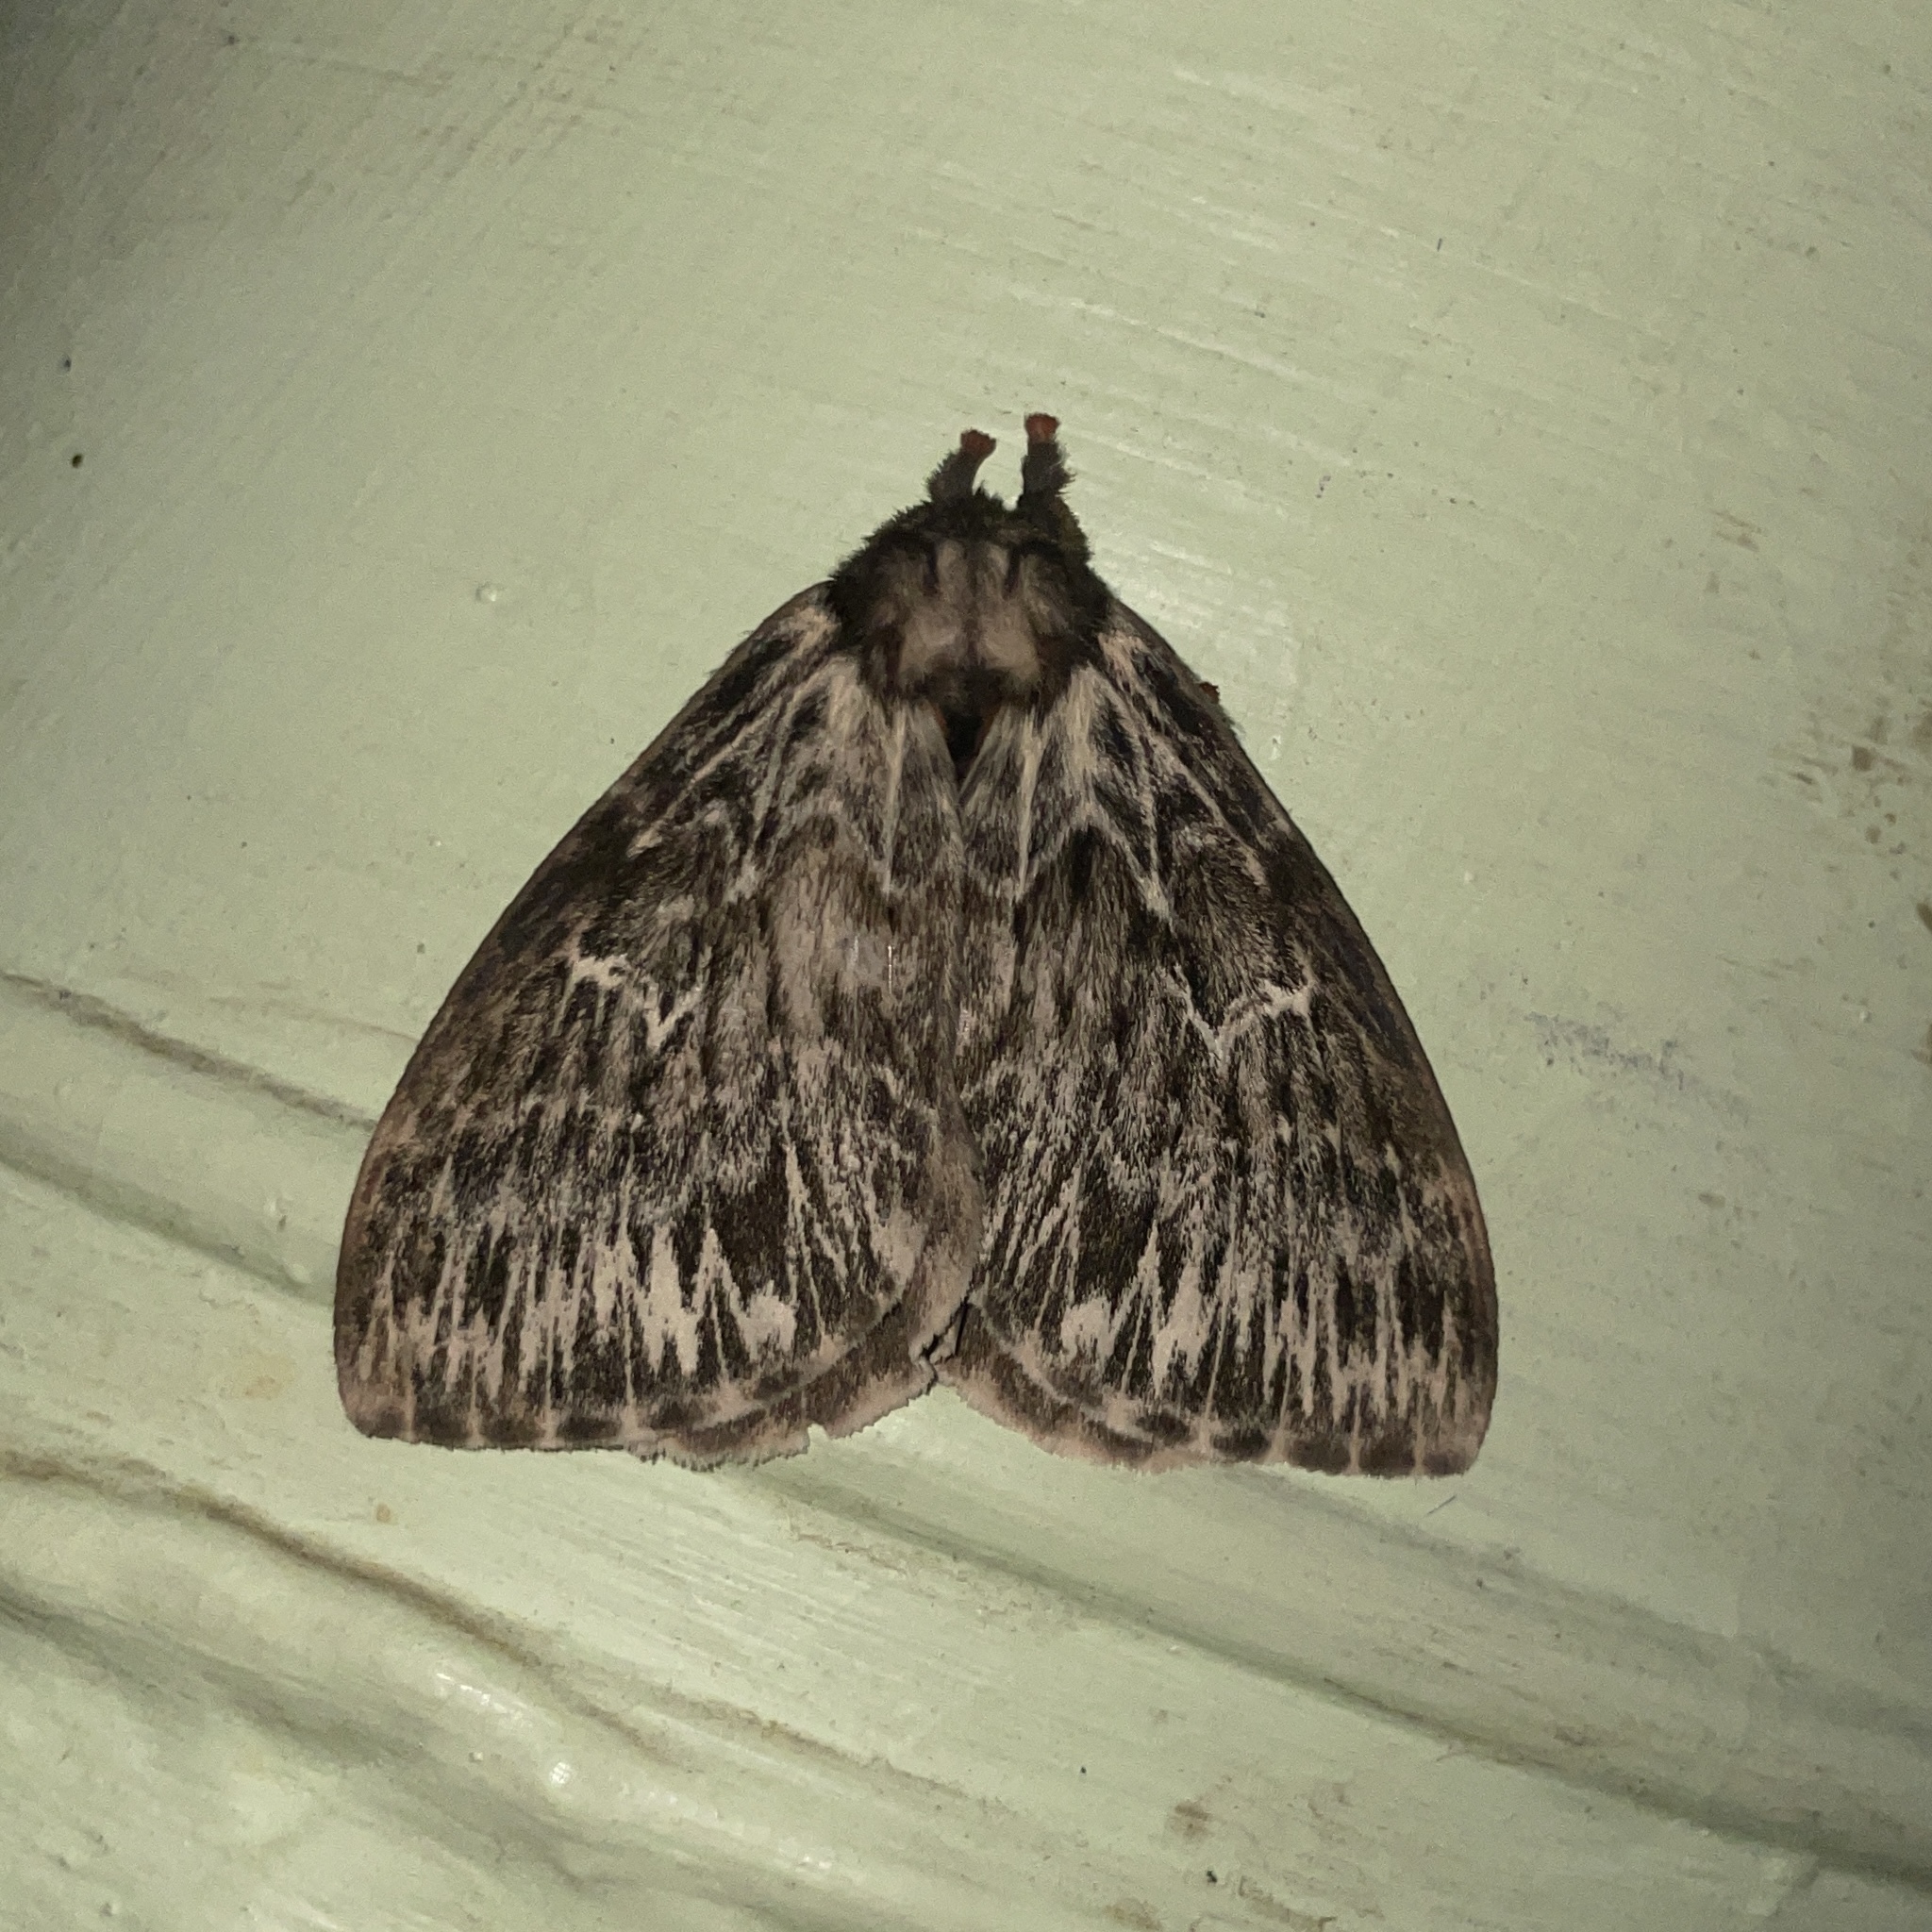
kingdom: Animalia
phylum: Arthropoda
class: Insecta
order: Lepidoptera
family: Saturniidae
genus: Dirphia
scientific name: Dirphia radiata
